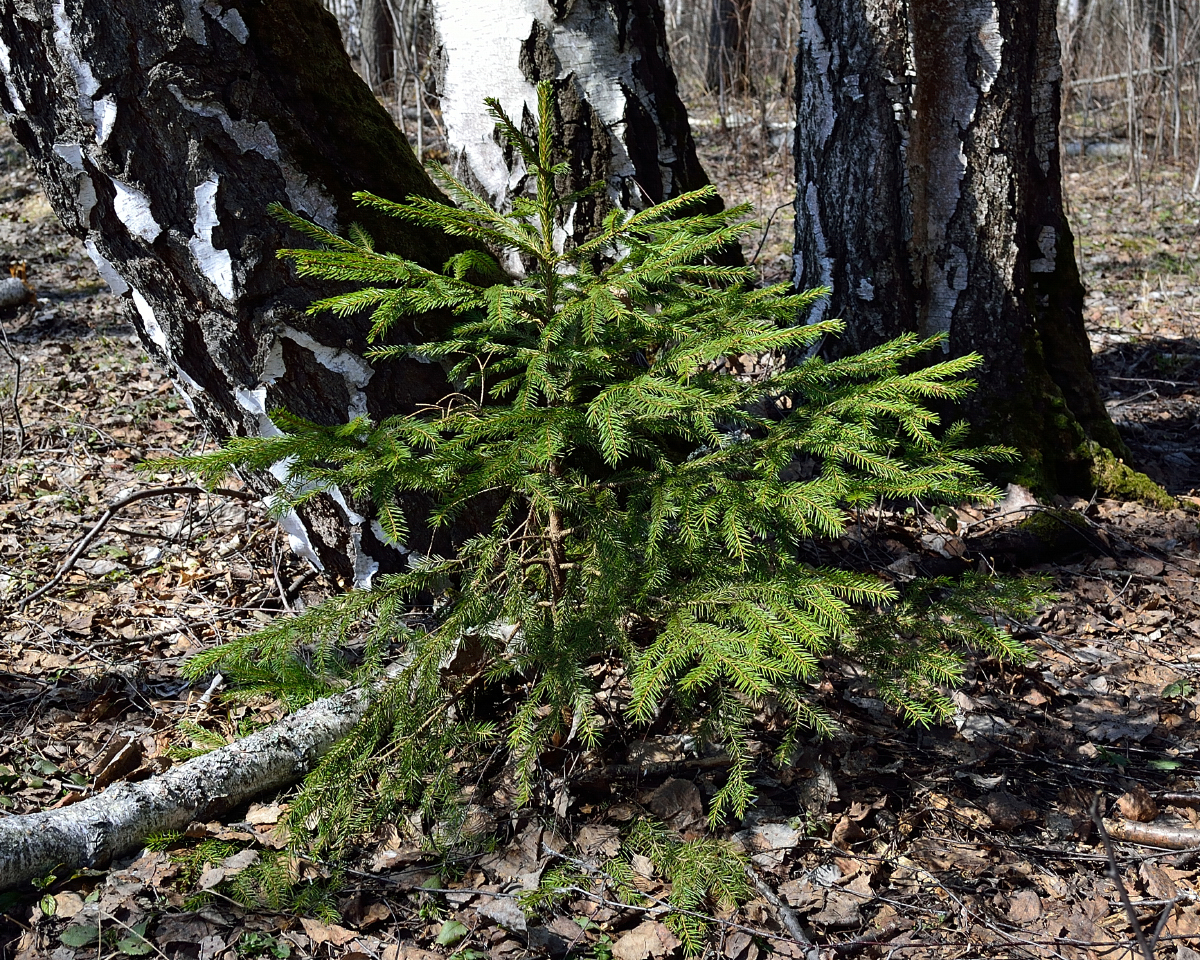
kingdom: Plantae
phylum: Tracheophyta
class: Pinopsida
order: Pinales
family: Pinaceae
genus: Picea
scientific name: Picea abies
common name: Norway spruce
